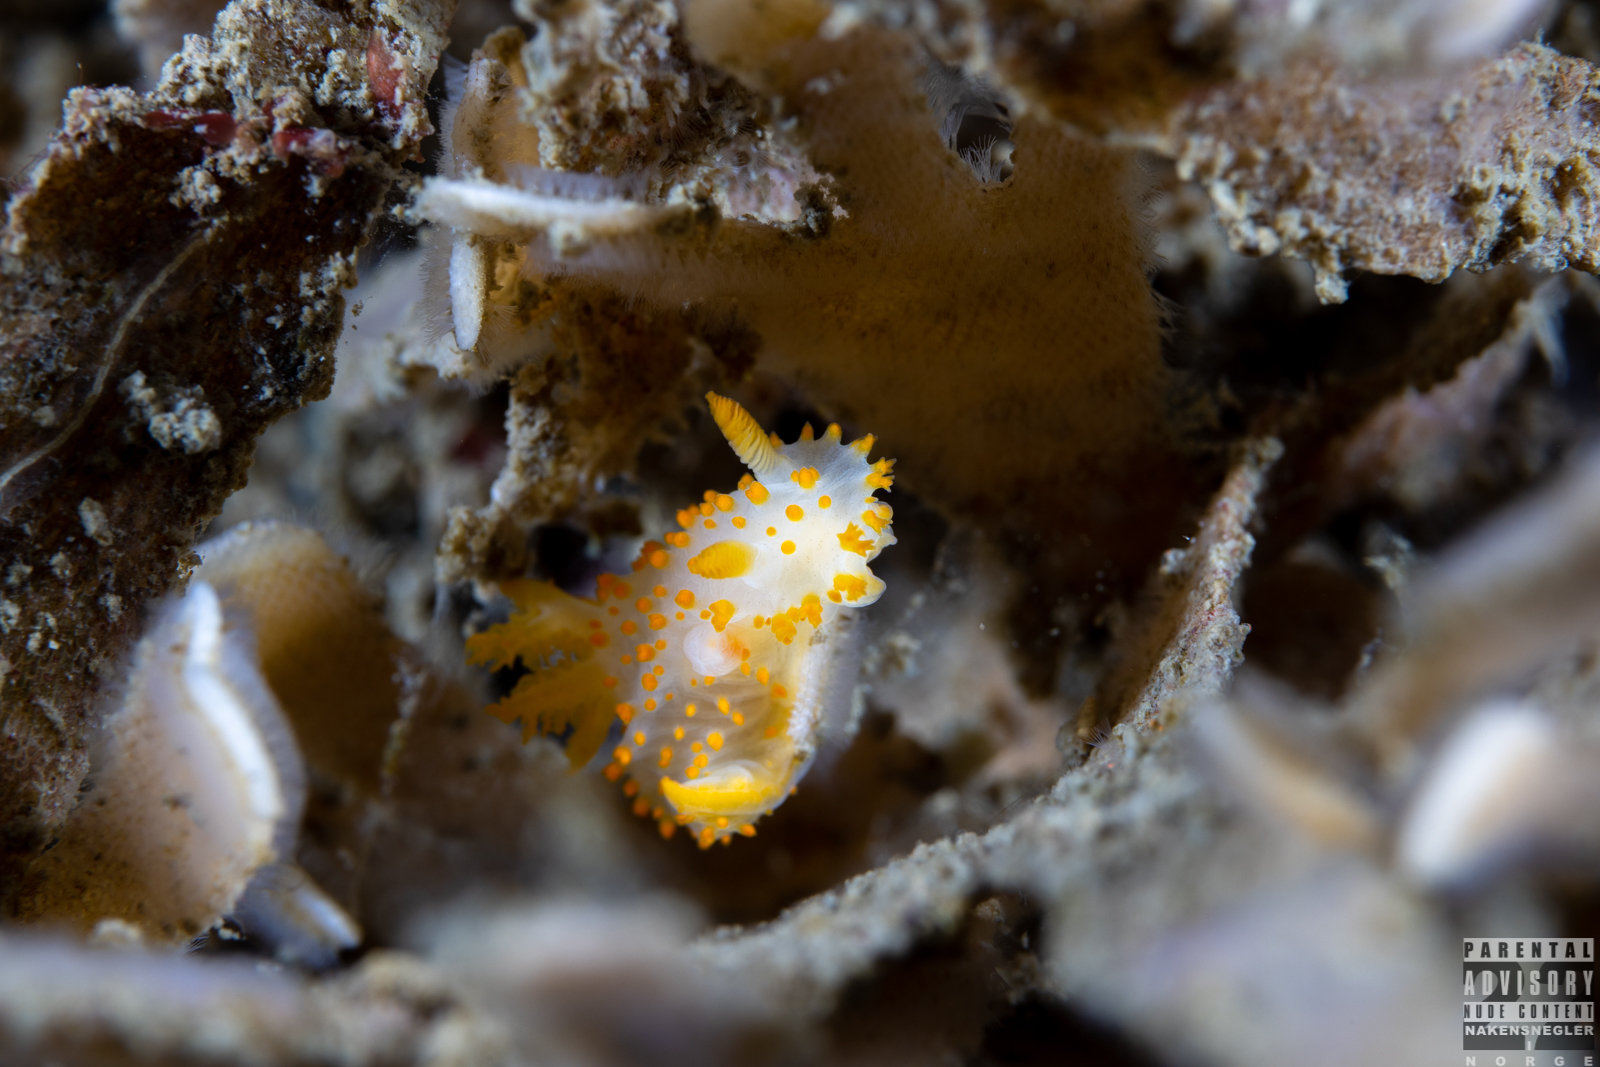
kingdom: Animalia
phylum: Mollusca
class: Gastropoda
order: Nudibranchia
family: Polyceridae
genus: Crimora
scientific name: Crimora papillata
